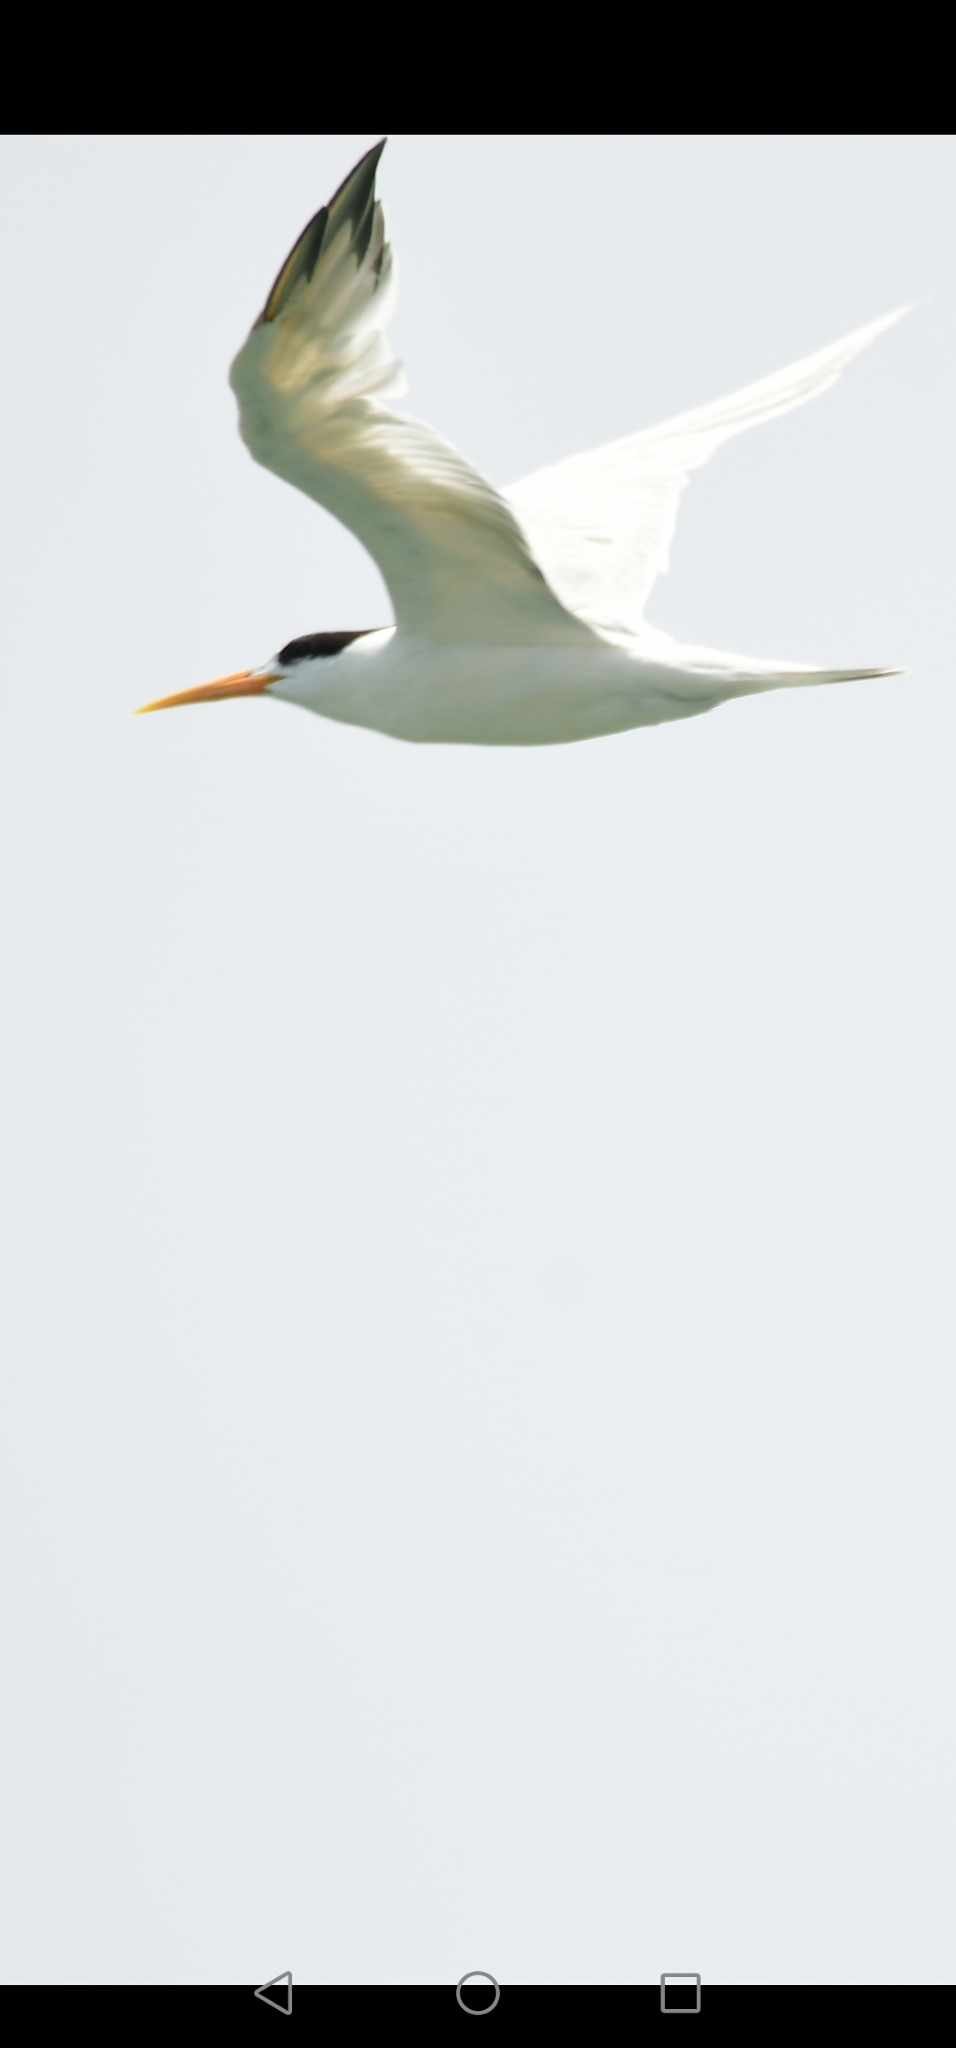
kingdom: Animalia
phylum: Chordata
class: Aves
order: Charadriiformes
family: Laridae
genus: Thalasseus
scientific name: Thalasseus elegans
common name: Elegant tern
